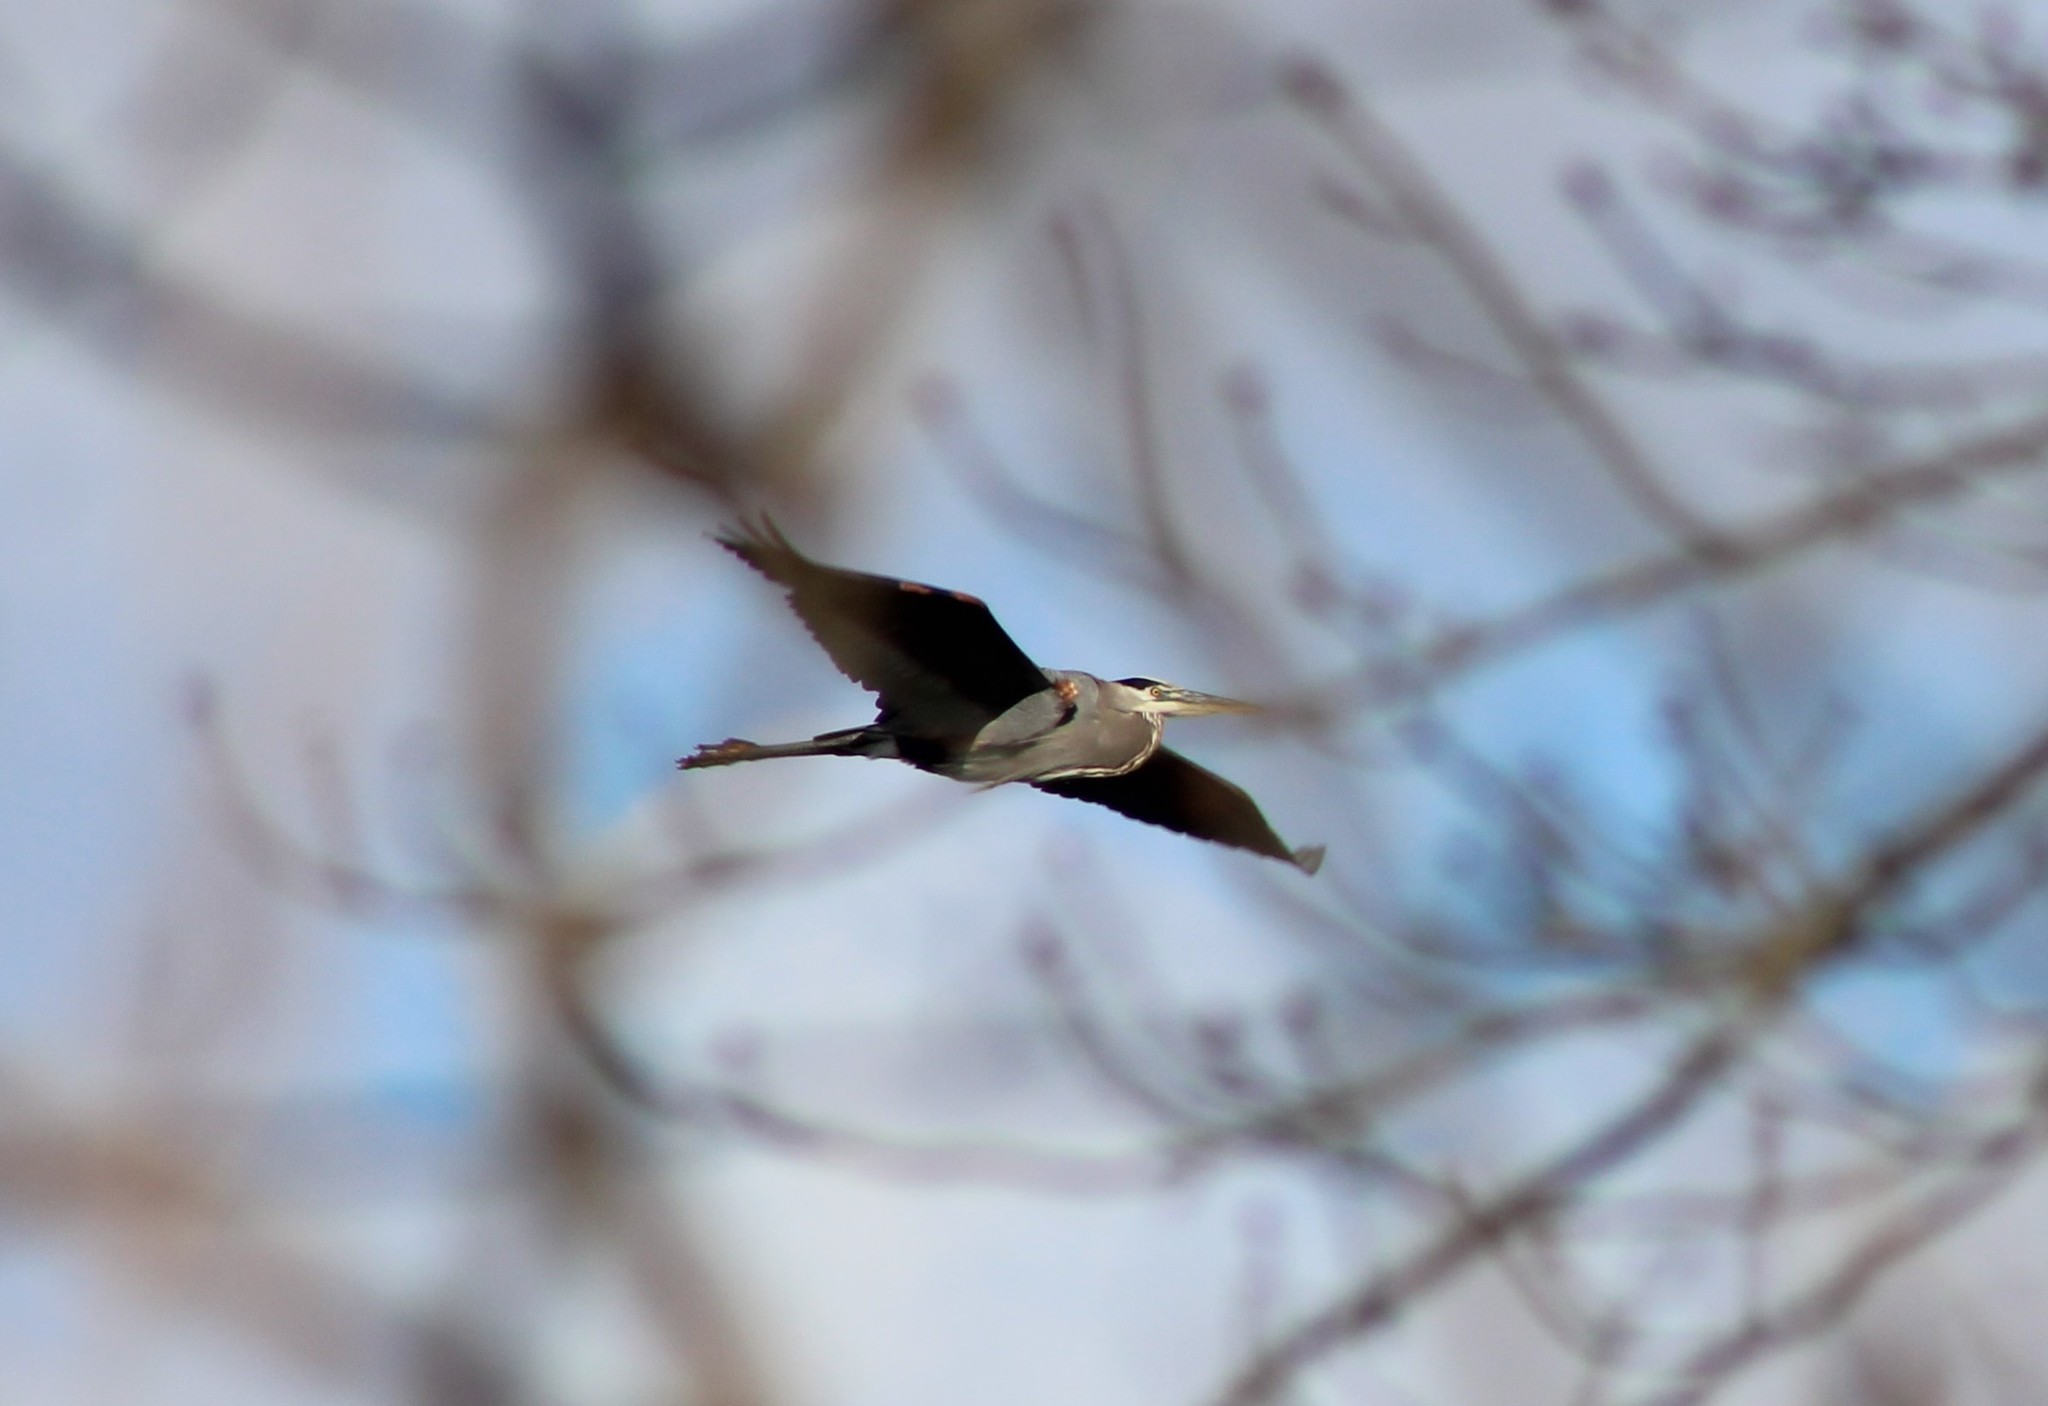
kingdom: Animalia
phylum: Chordata
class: Aves
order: Pelecaniformes
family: Ardeidae
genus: Ardea
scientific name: Ardea herodias
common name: Great blue heron
